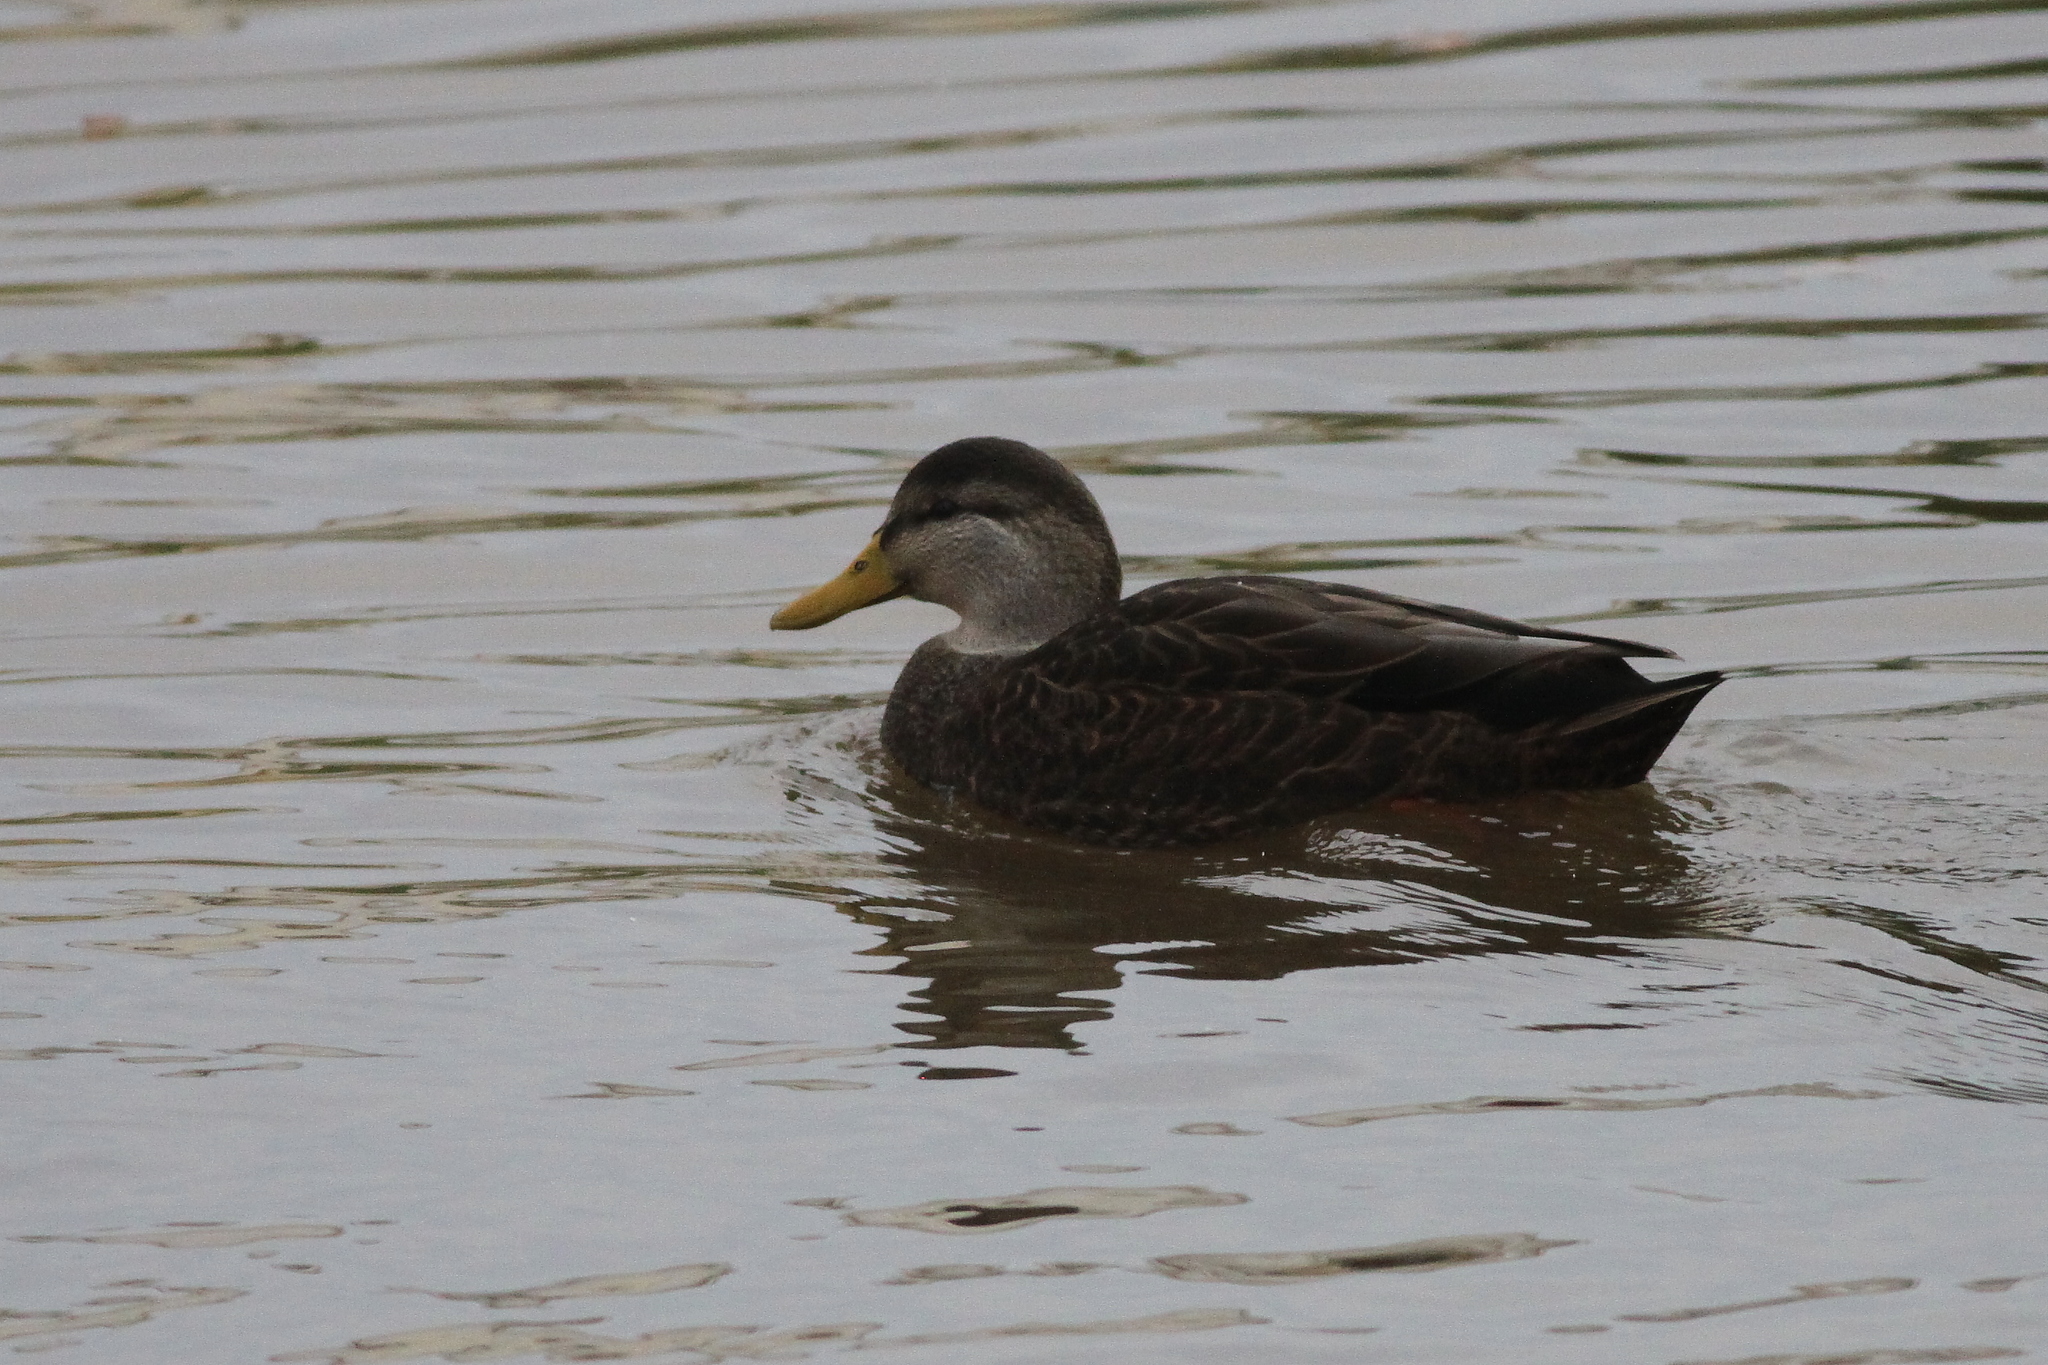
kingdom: Animalia
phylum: Chordata
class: Aves
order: Anseriformes
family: Anatidae
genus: Anas
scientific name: Anas rubripes
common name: American black duck
